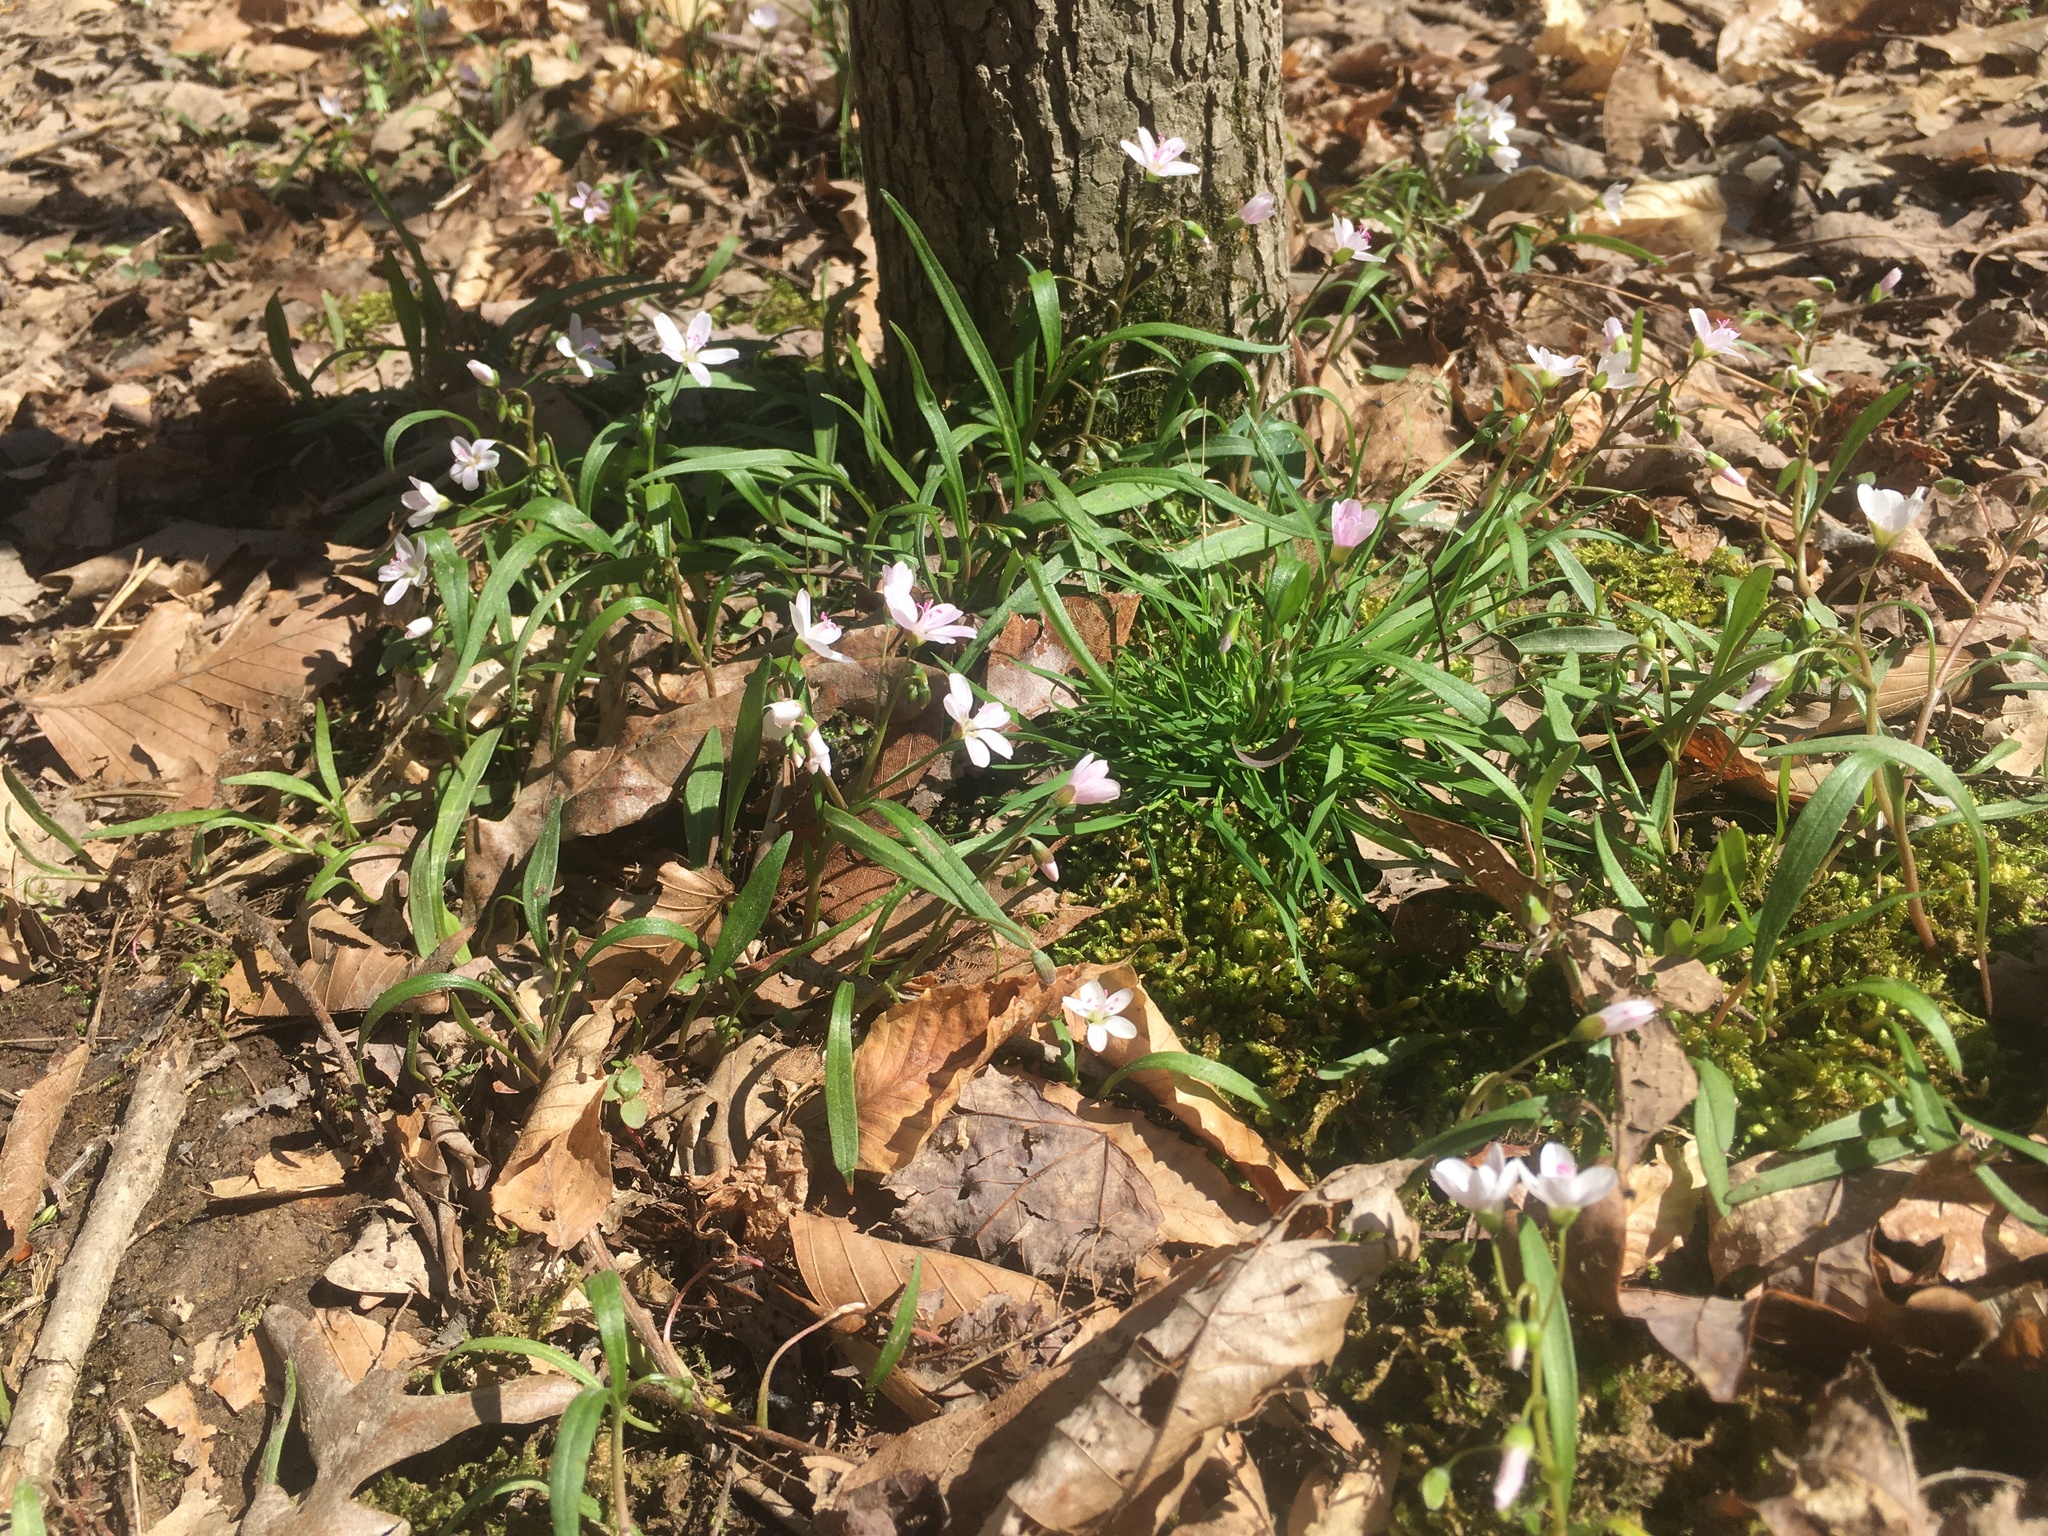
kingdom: Plantae
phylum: Tracheophyta
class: Magnoliopsida
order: Caryophyllales
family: Montiaceae
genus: Claytonia
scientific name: Claytonia virginica
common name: Virginia springbeauty
